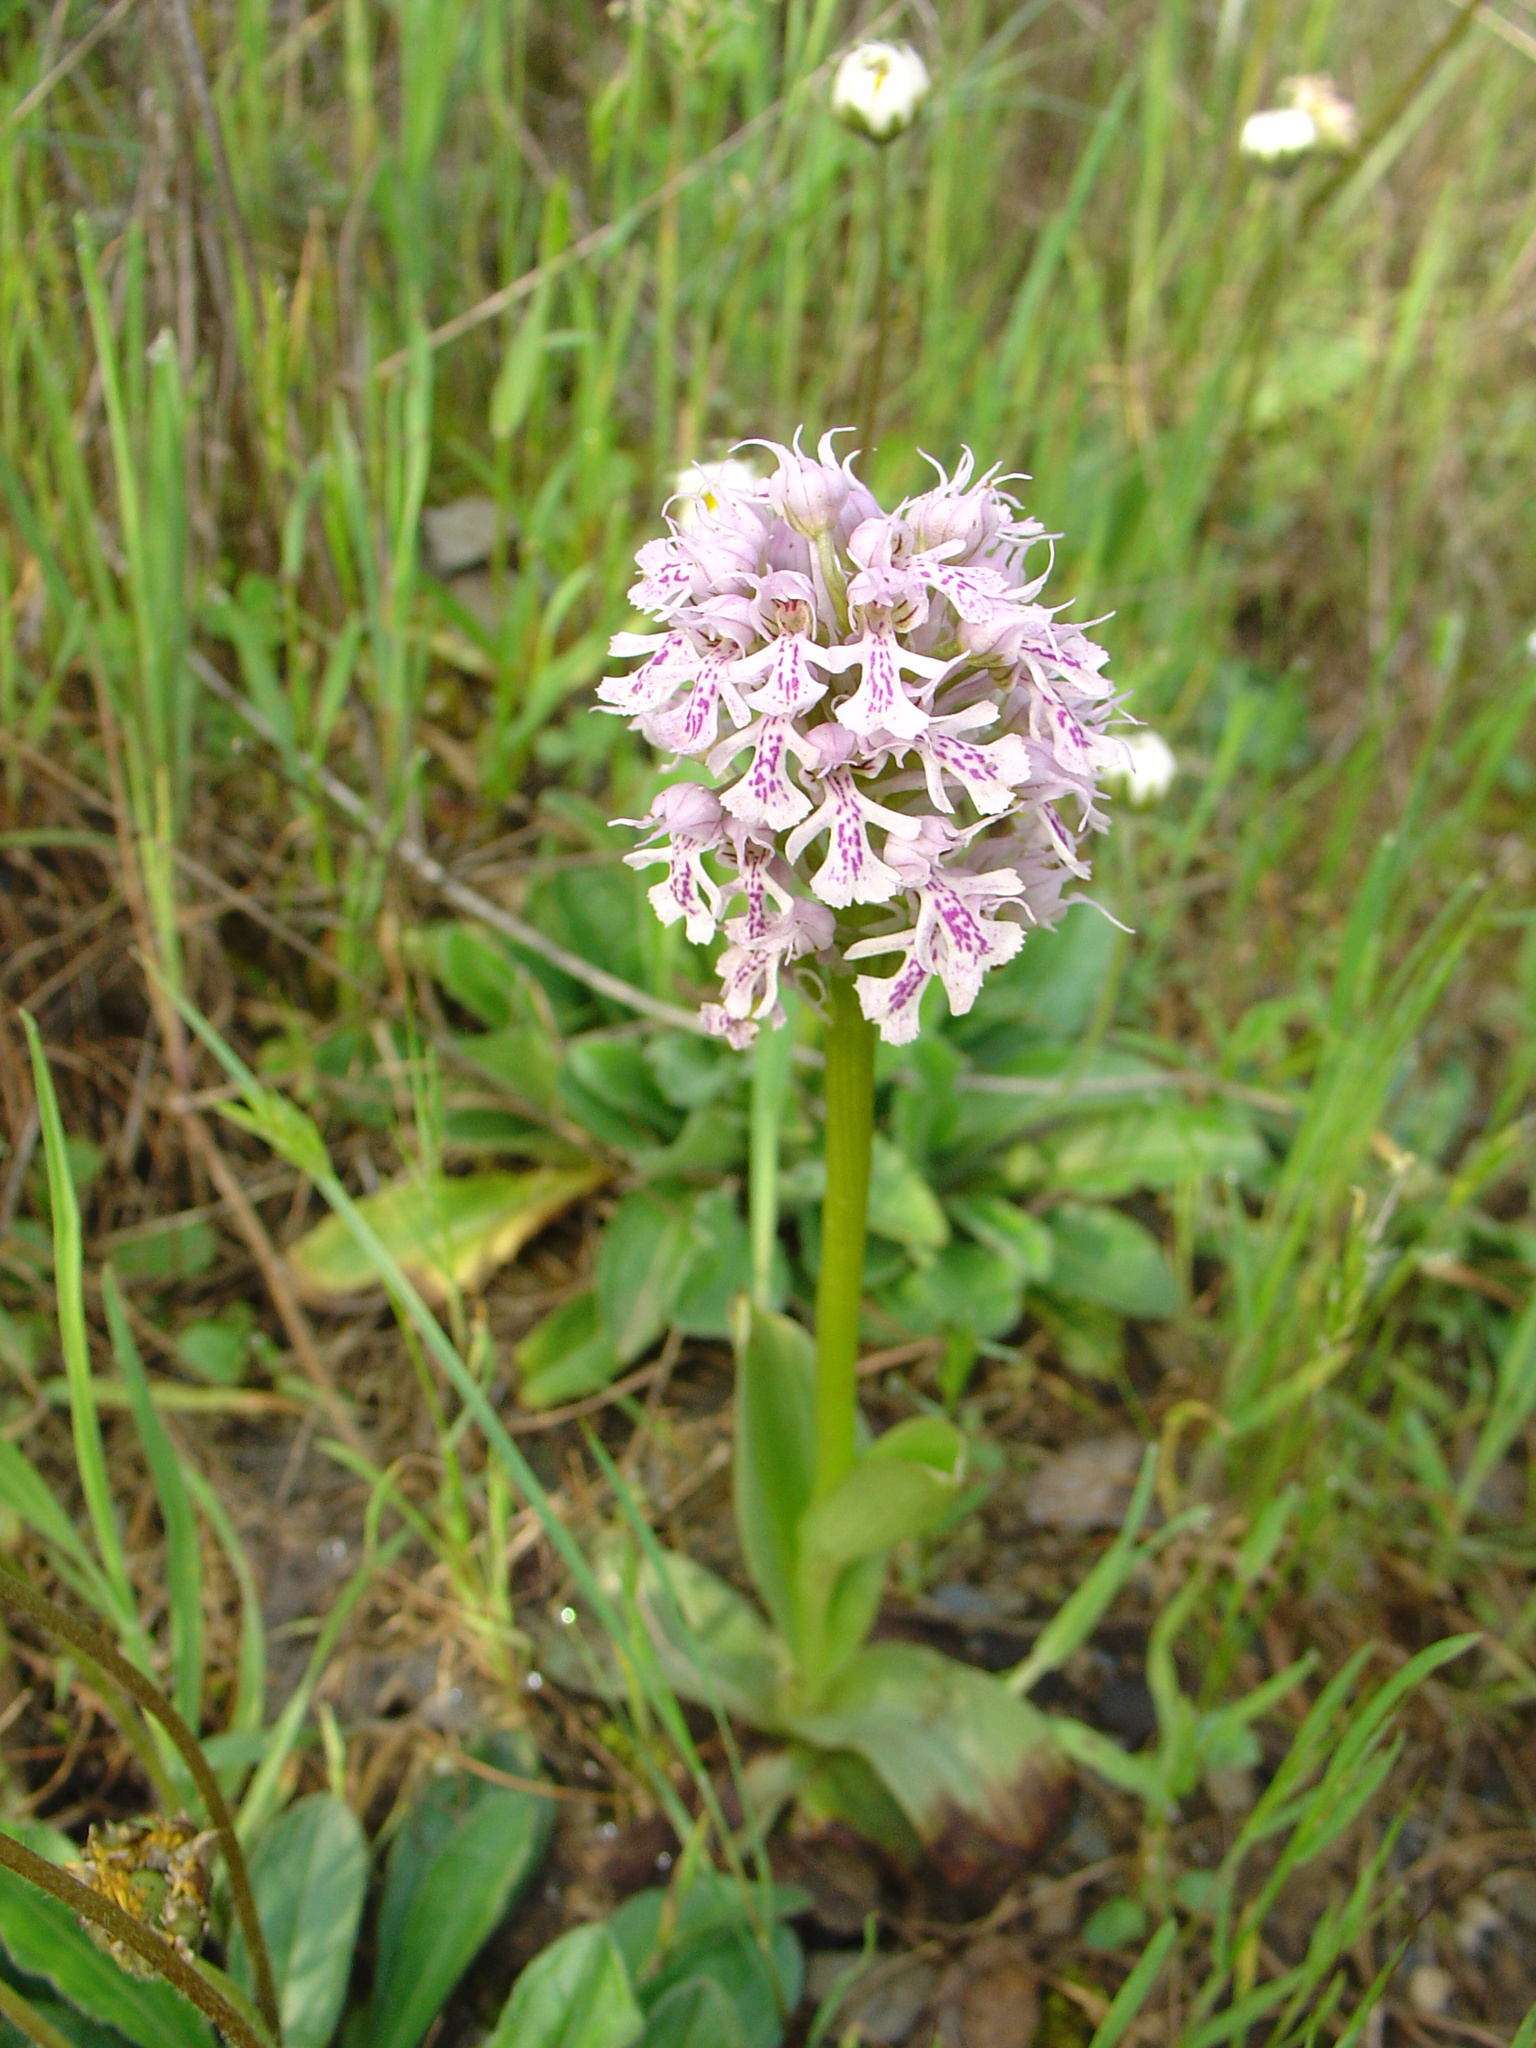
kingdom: Plantae
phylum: Tracheophyta
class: Liliopsida
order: Asparagales
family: Orchidaceae
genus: Neotinea
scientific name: Neotinea conica
